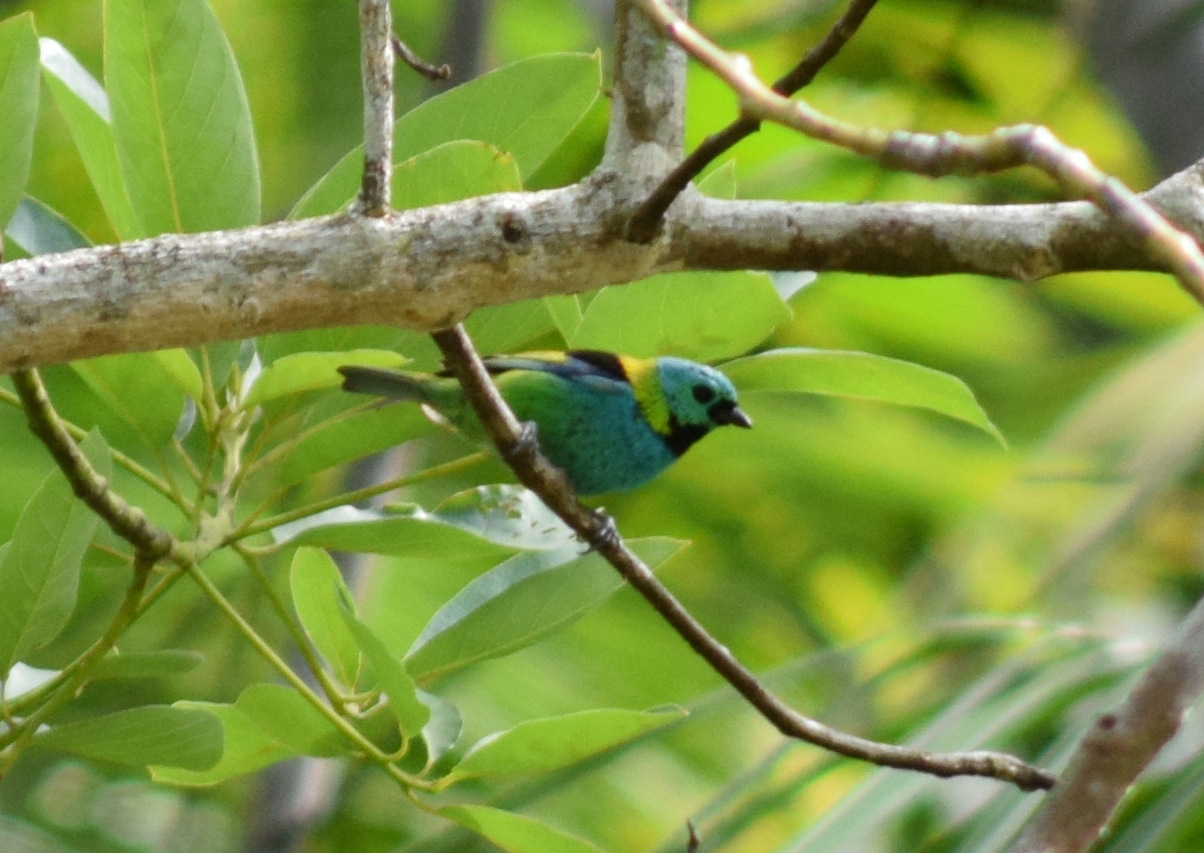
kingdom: Animalia
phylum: Chordata
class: Aves
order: Passeriformes
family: Thraupidae
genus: Tangara
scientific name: Tangara seledon
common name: Green-headed tanager
